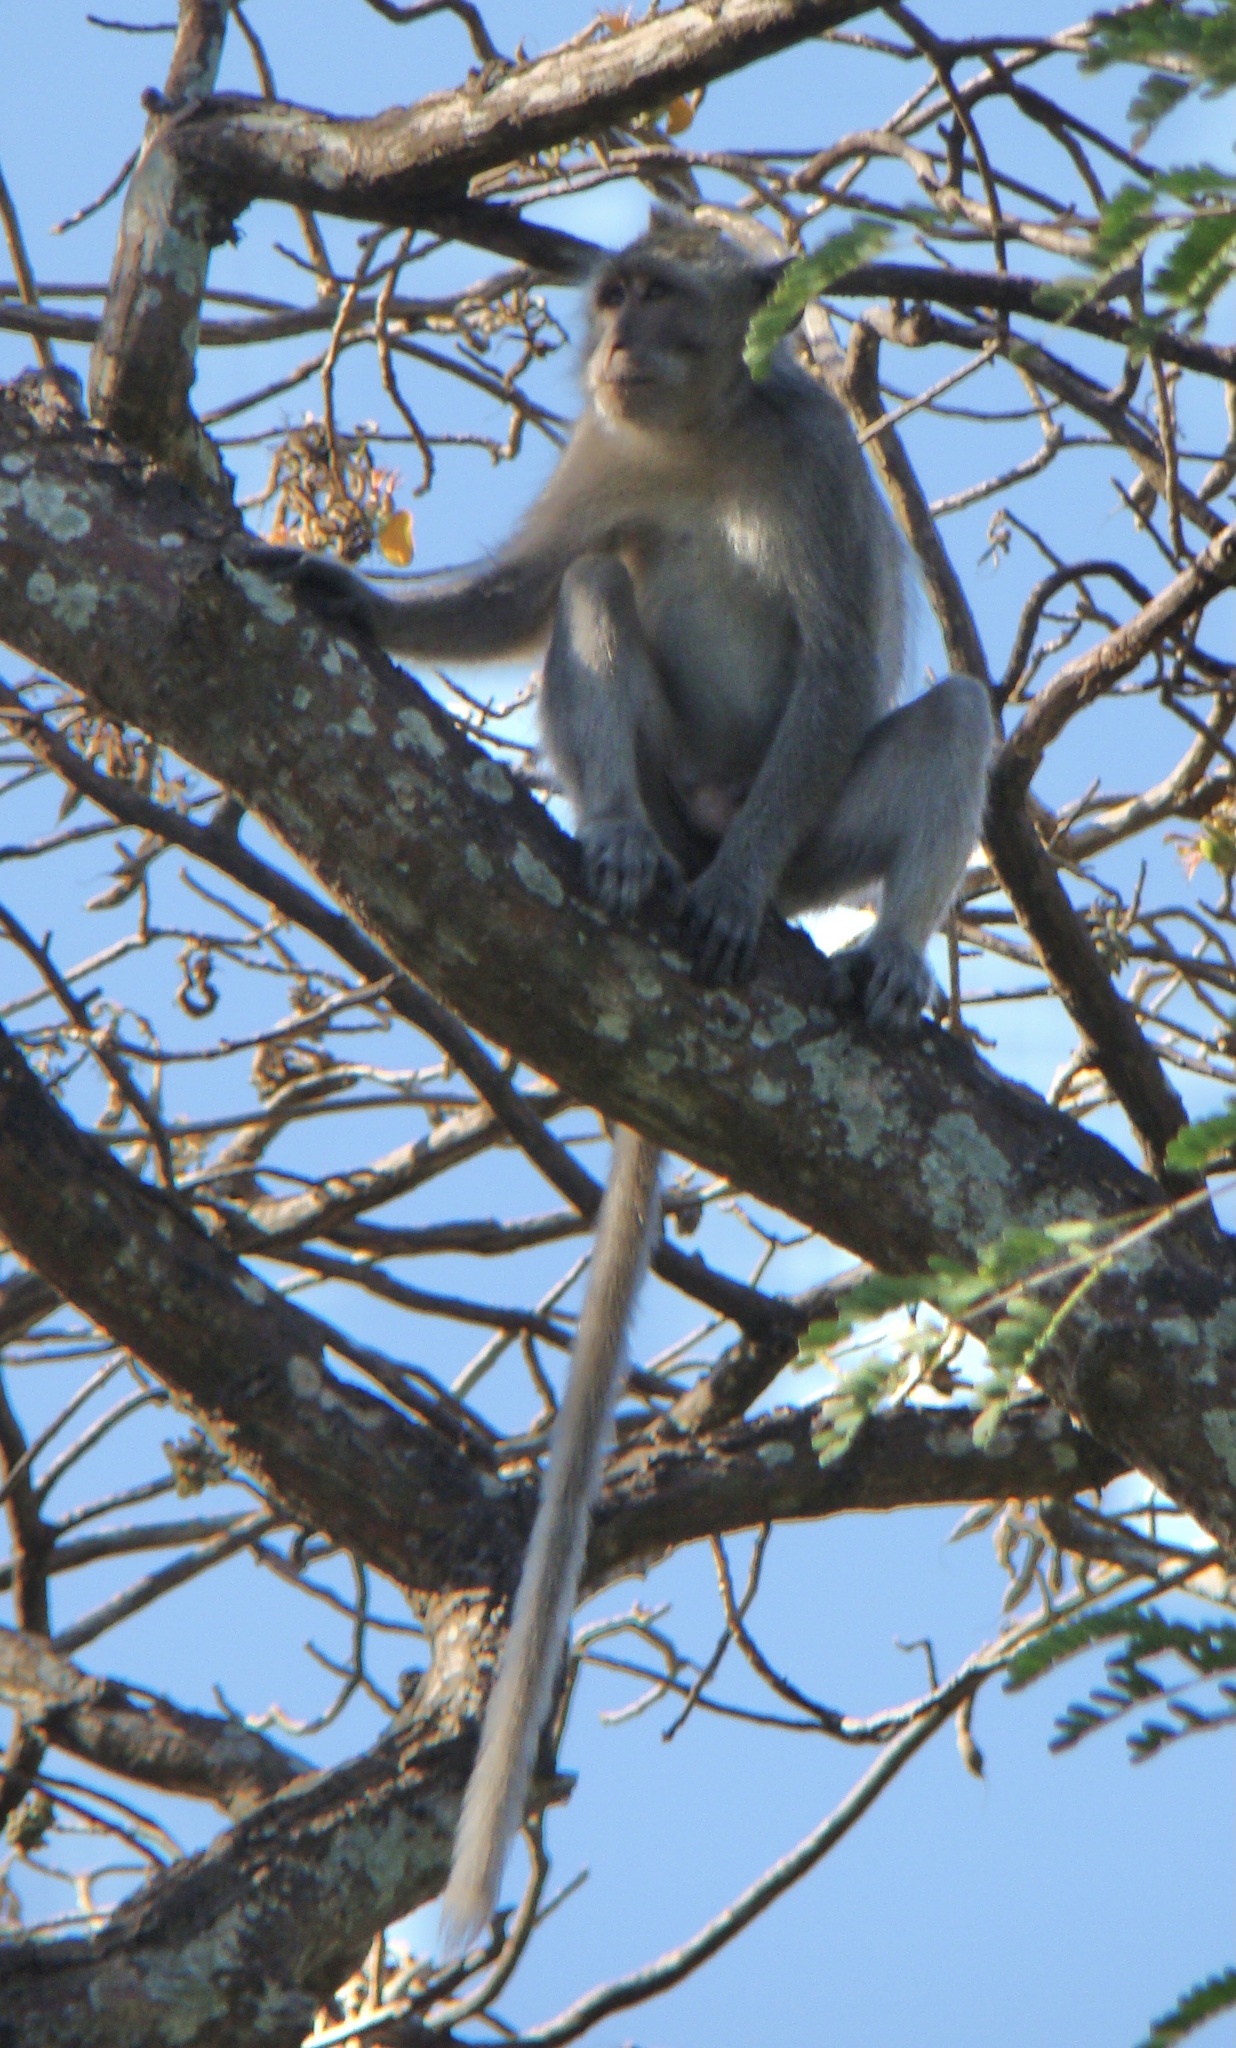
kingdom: Animalia
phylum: Chordata
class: Mammalia
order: Primates
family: Cercopithecidae
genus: Macaca
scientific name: Macaca fascicularis
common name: Crab-eating macaque
